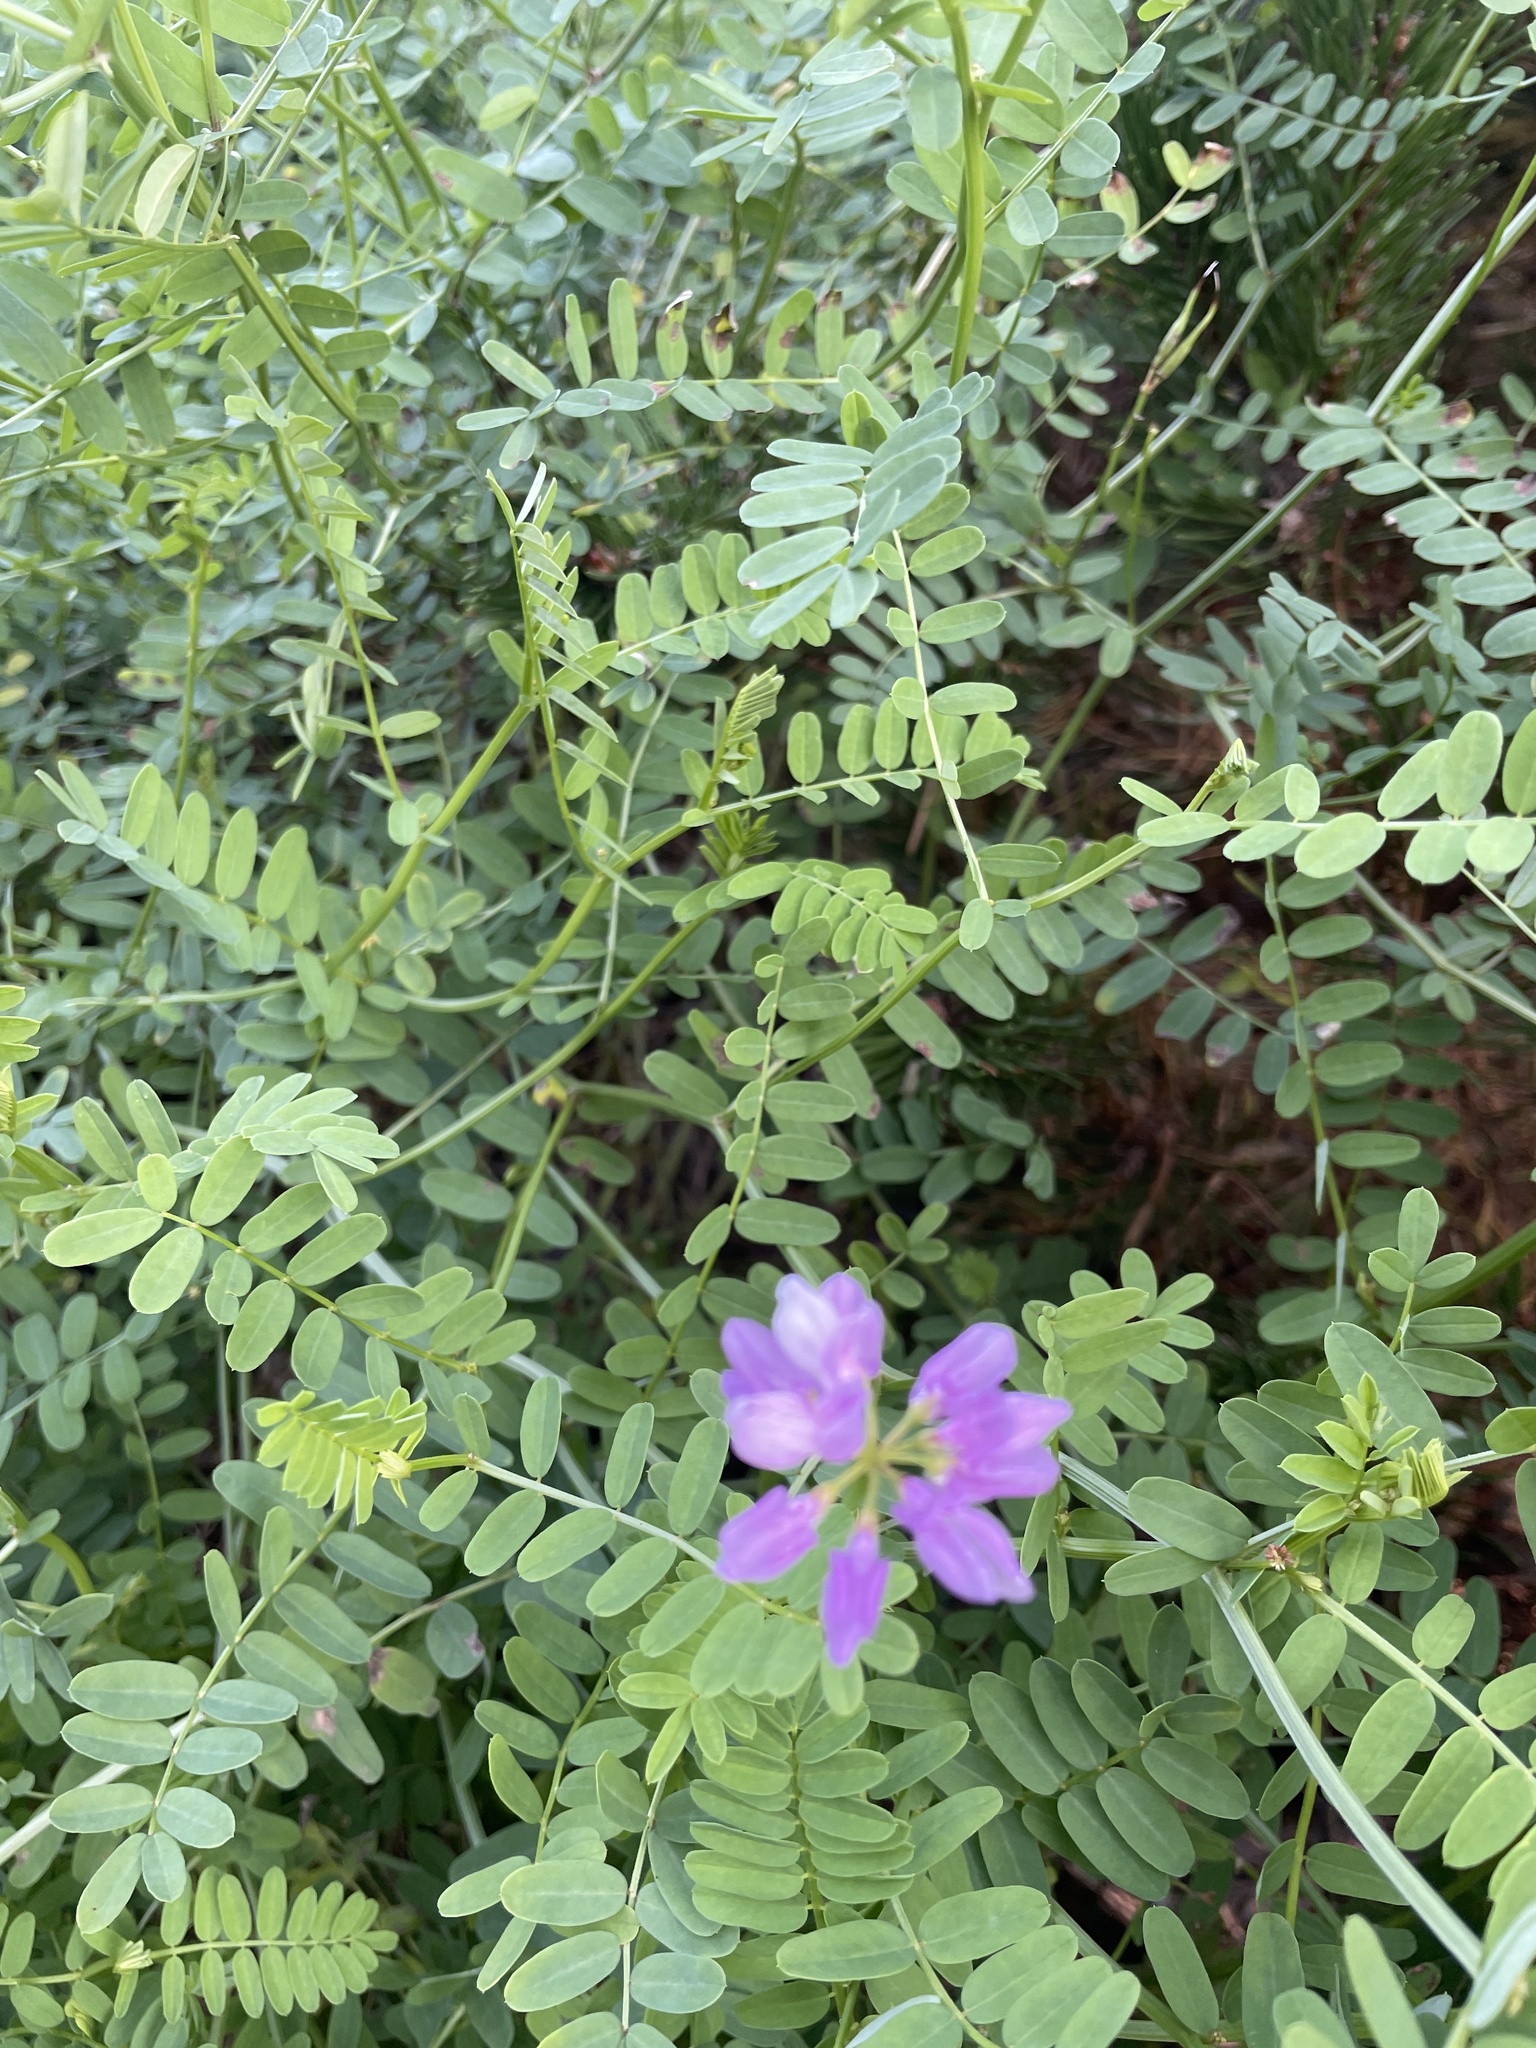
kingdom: Plantae
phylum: Tracheophyta
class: Magnoliopsida
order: Fabales
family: Fabaceae
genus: Coronilla
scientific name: Coronilla varia
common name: Crownvetch
